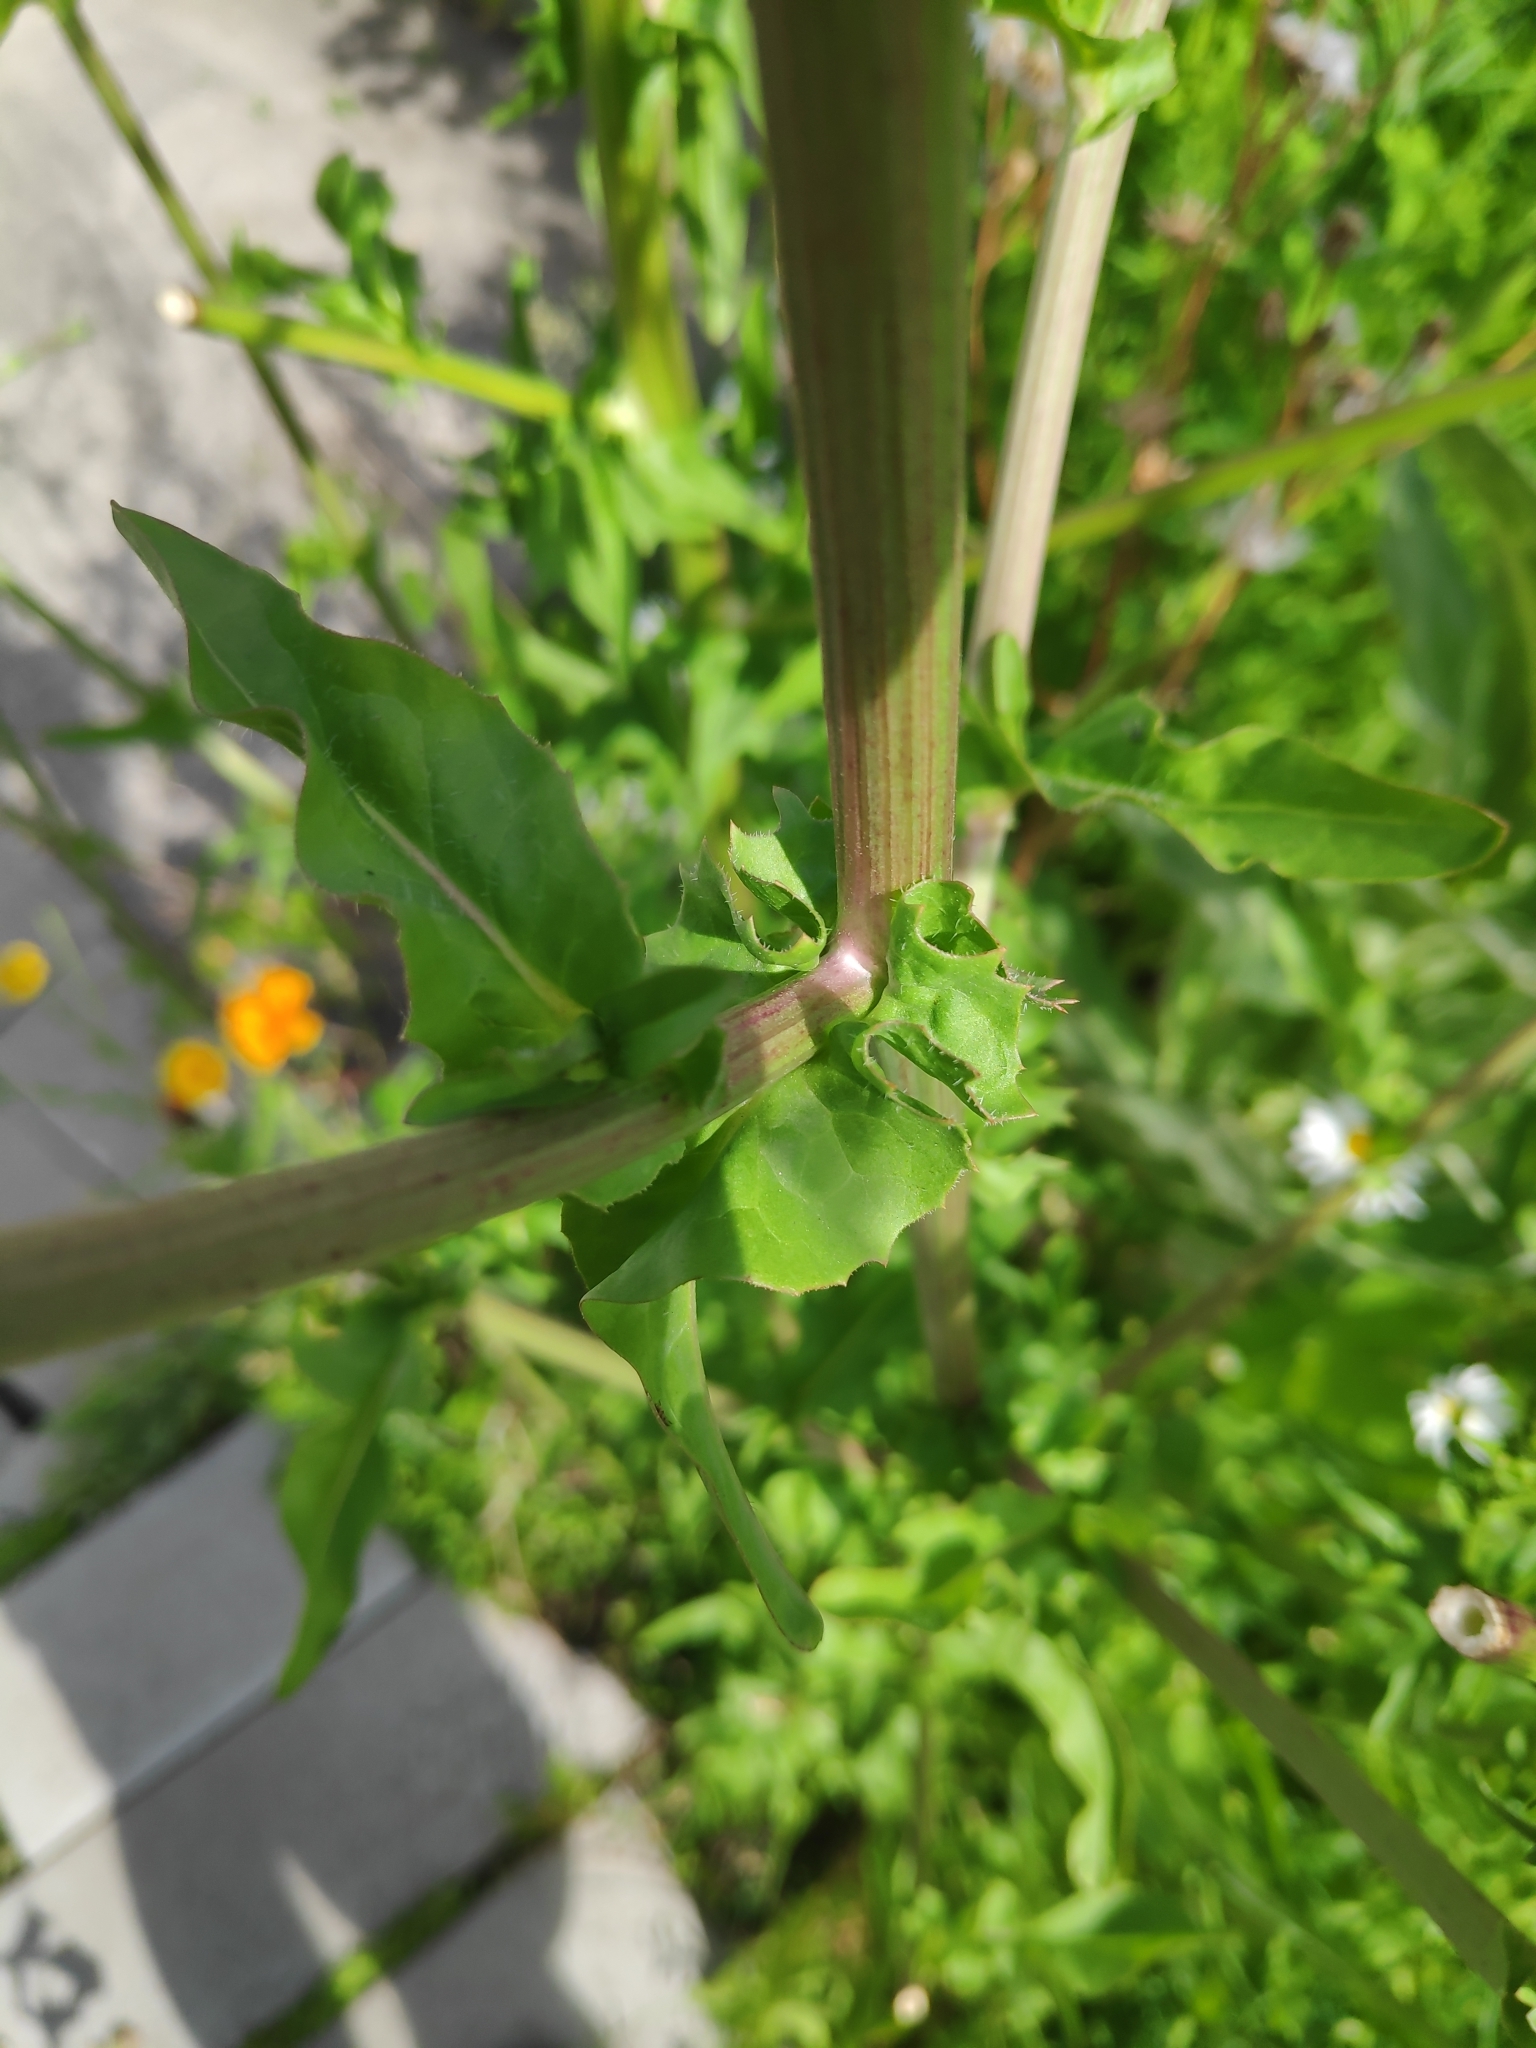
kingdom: Plantae
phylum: Tracheophyta
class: Magnoliopsida
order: Asterales
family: Asteraceae
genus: Cichorium
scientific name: Cichorium intybus
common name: Chicory
